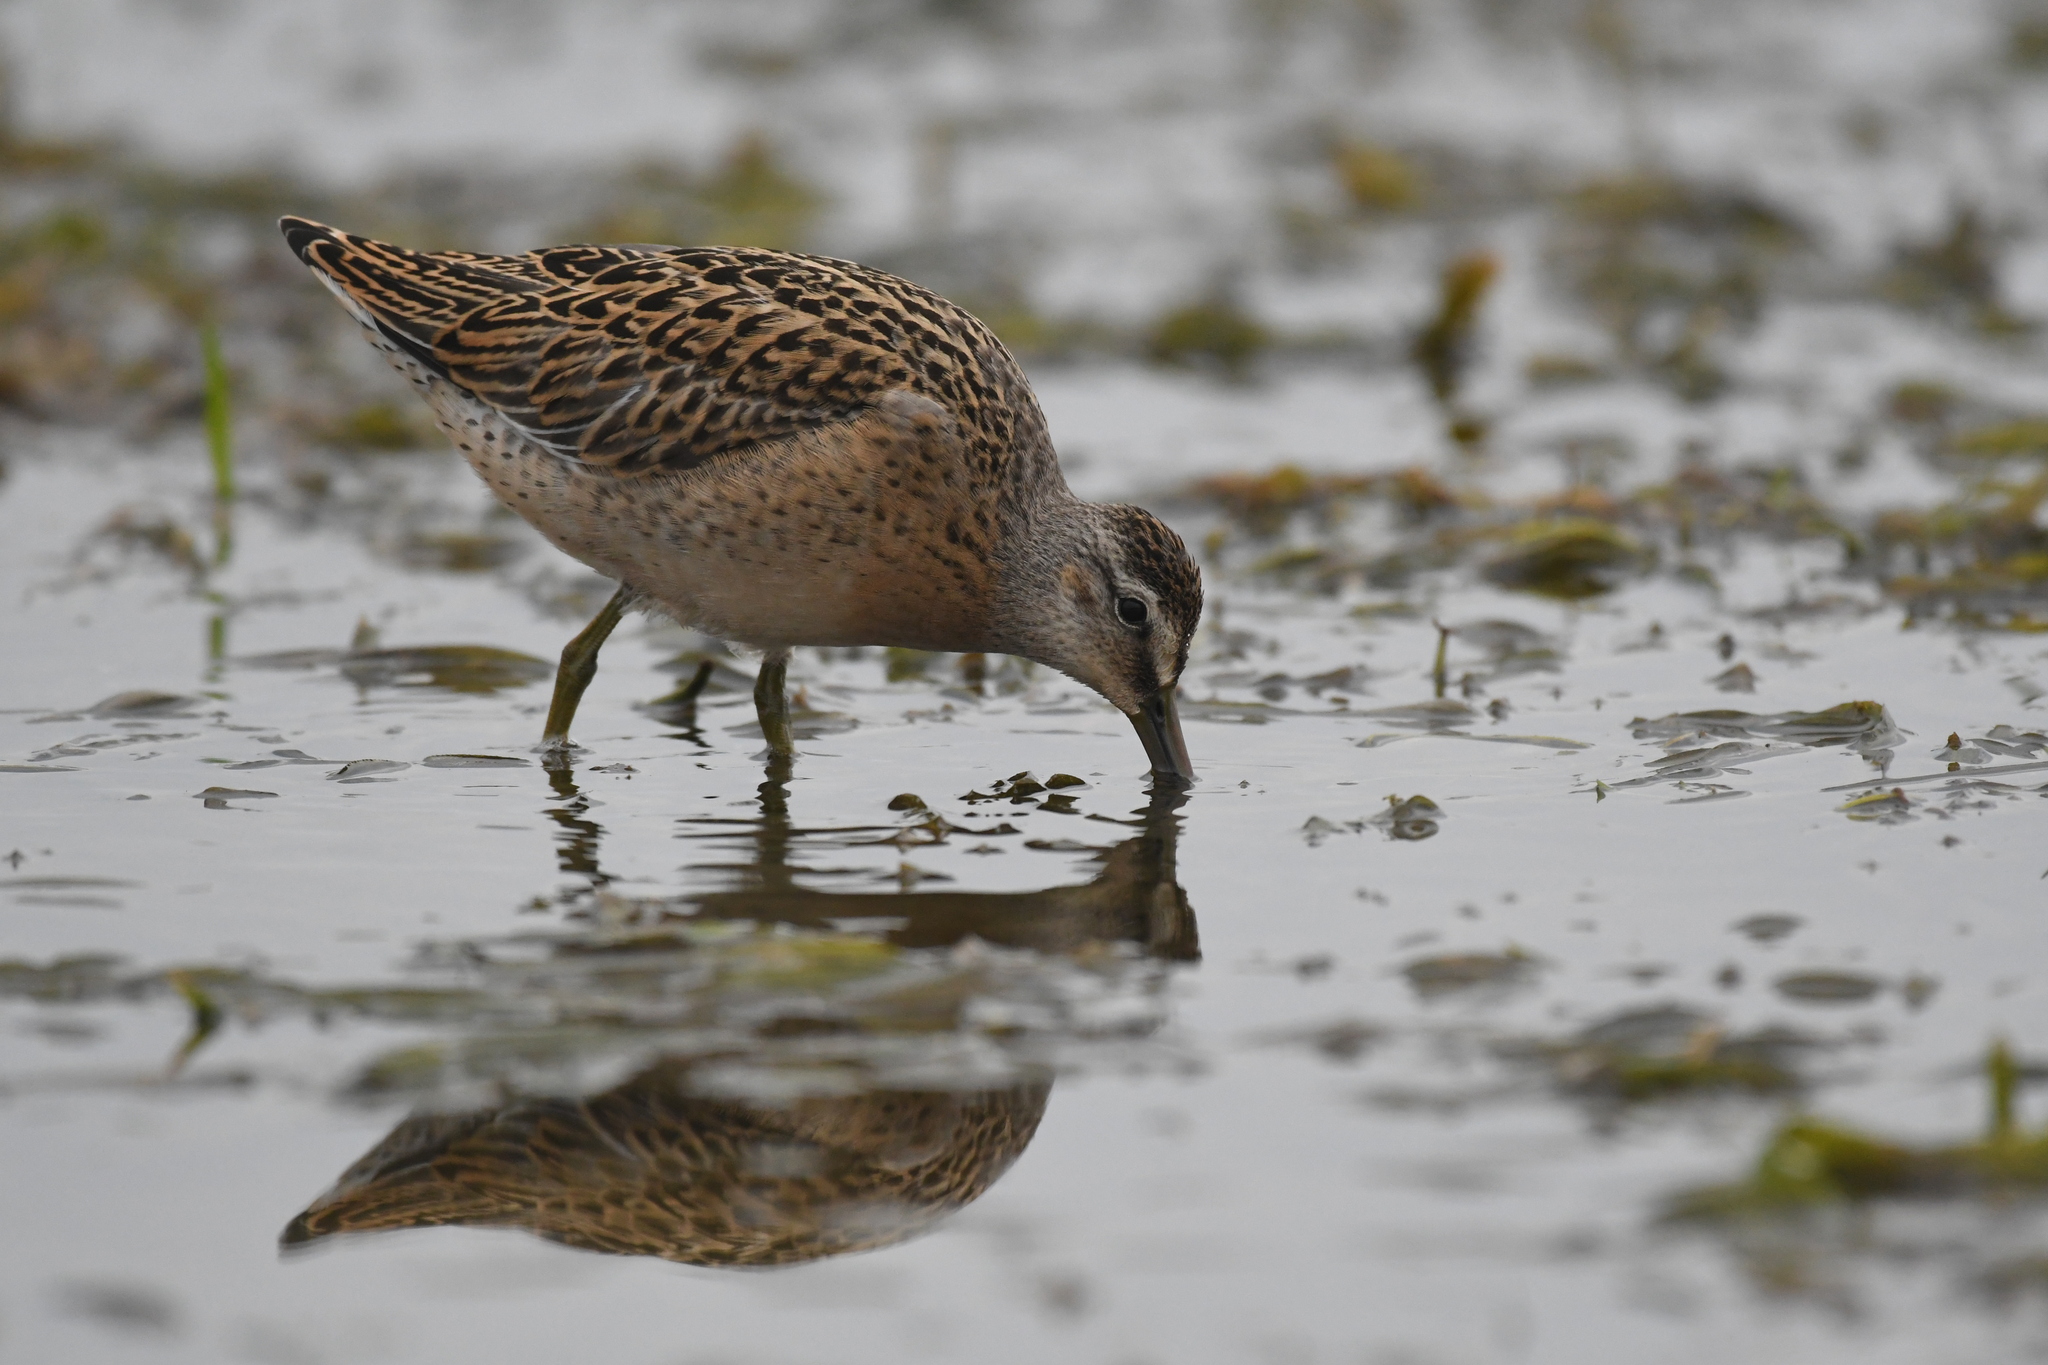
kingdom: Animalia
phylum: Chordata
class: Aves
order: Charadriiformes
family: Scolopacidae
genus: Limnodromus
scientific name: Limnodromus griseus
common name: Short-billed dowitcher
